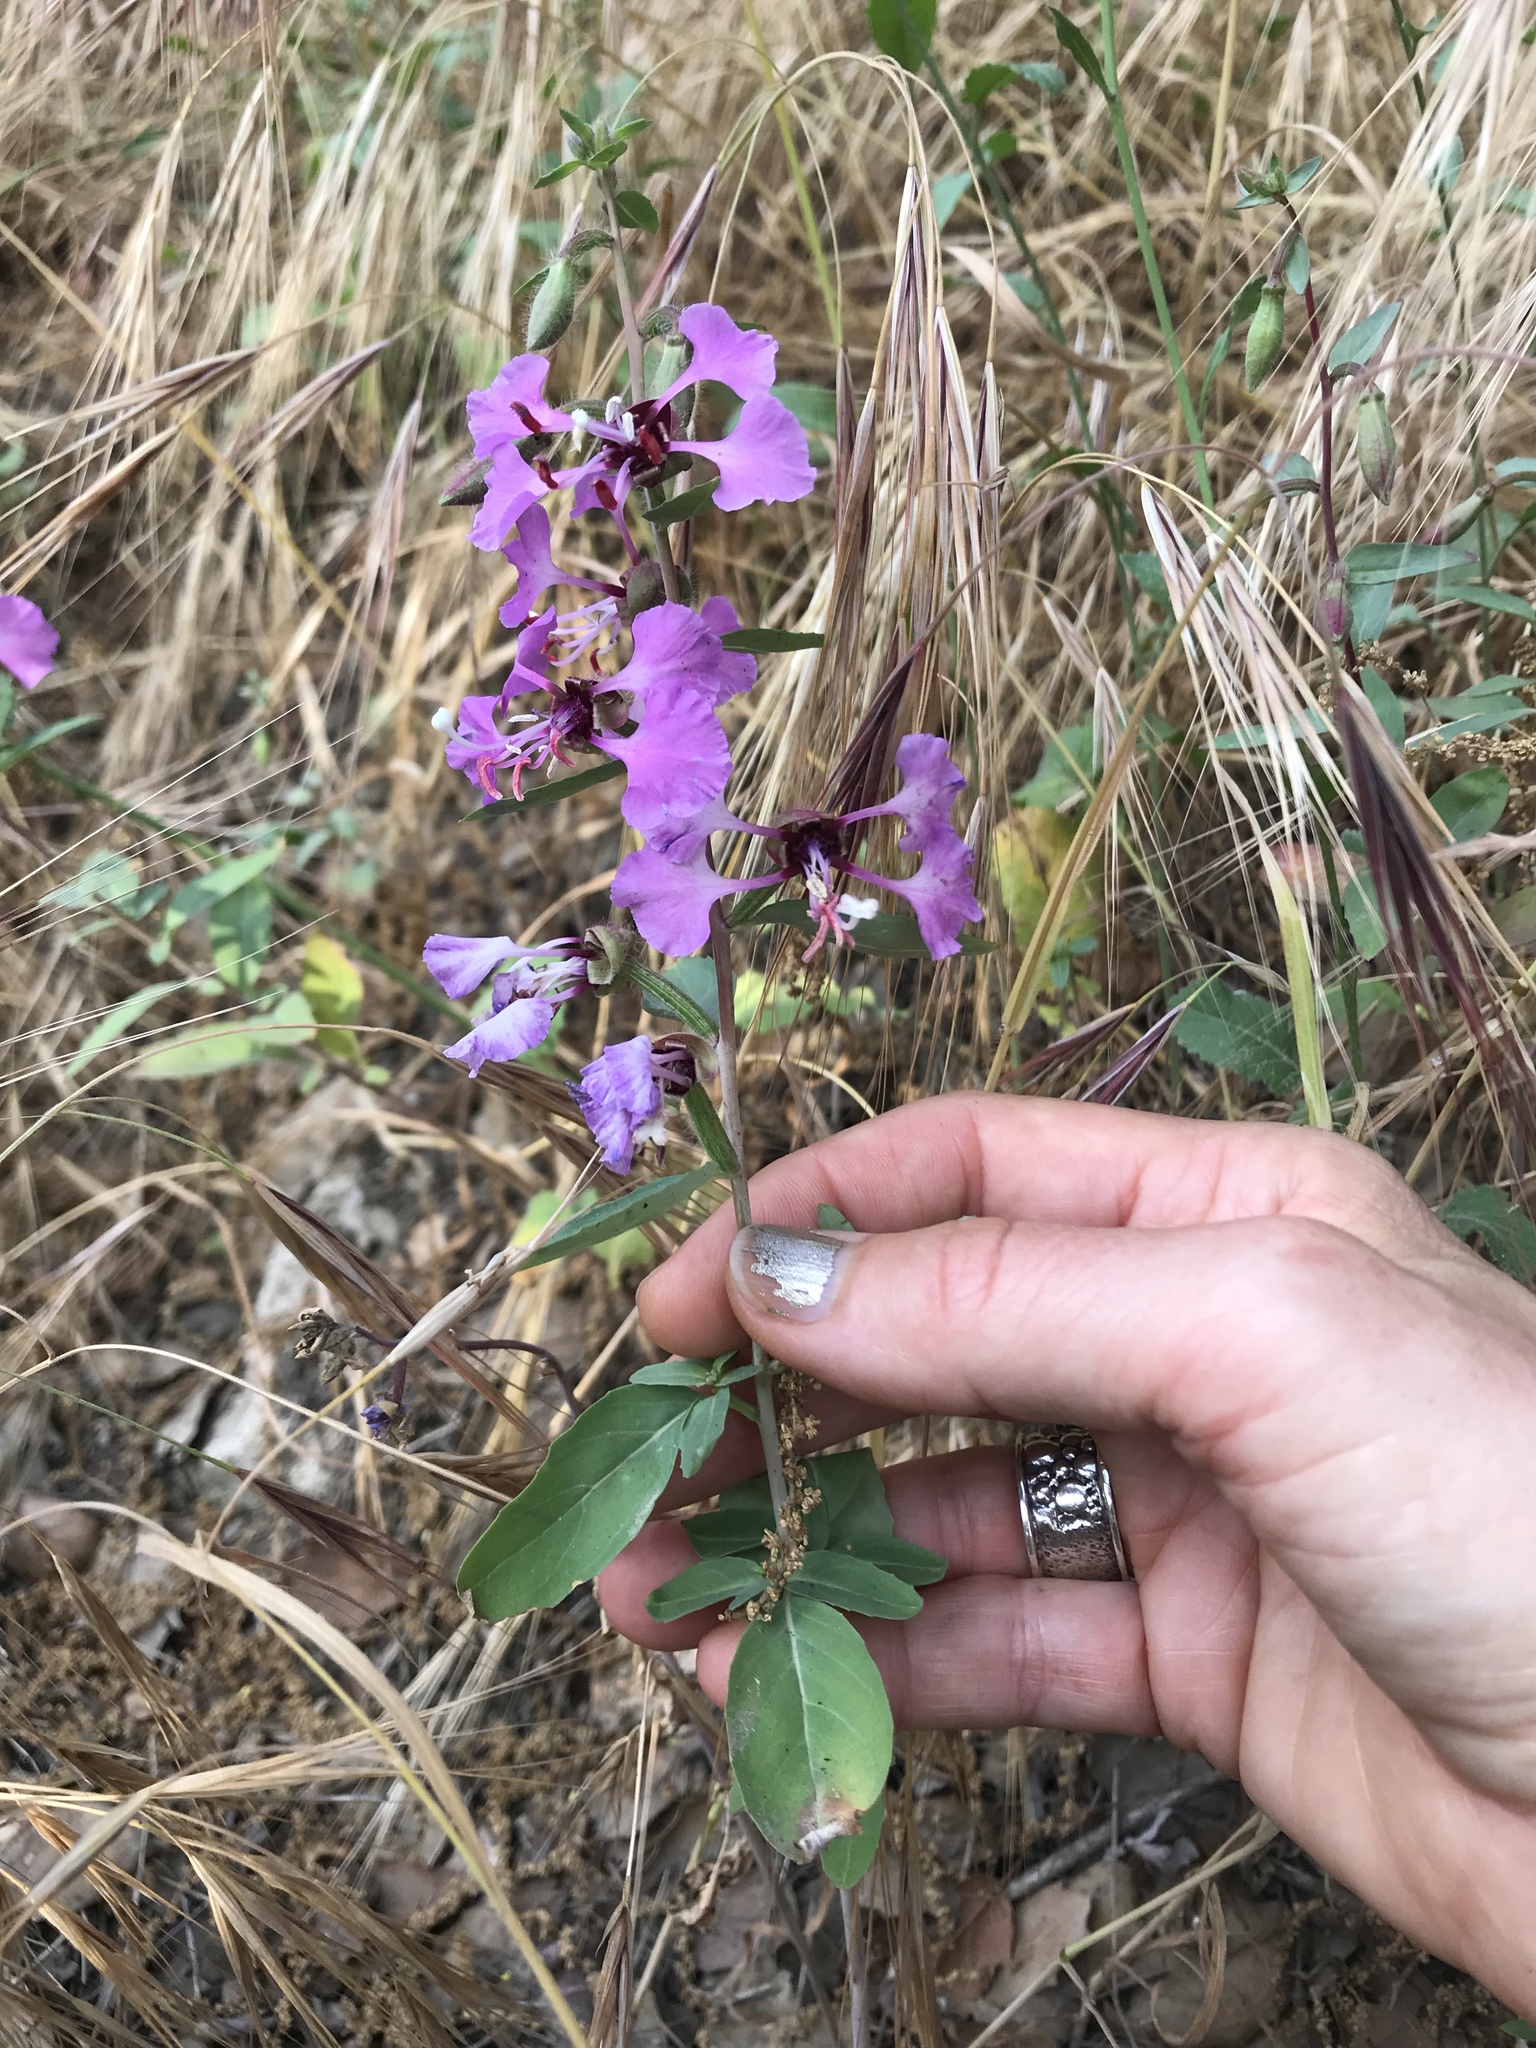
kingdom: Plantae
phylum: Tracheophyta
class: Magnoliopsida
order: Myrtales
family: Onagraceae
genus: Clarkia
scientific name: Clarkia unguiculata
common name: Clarkia
